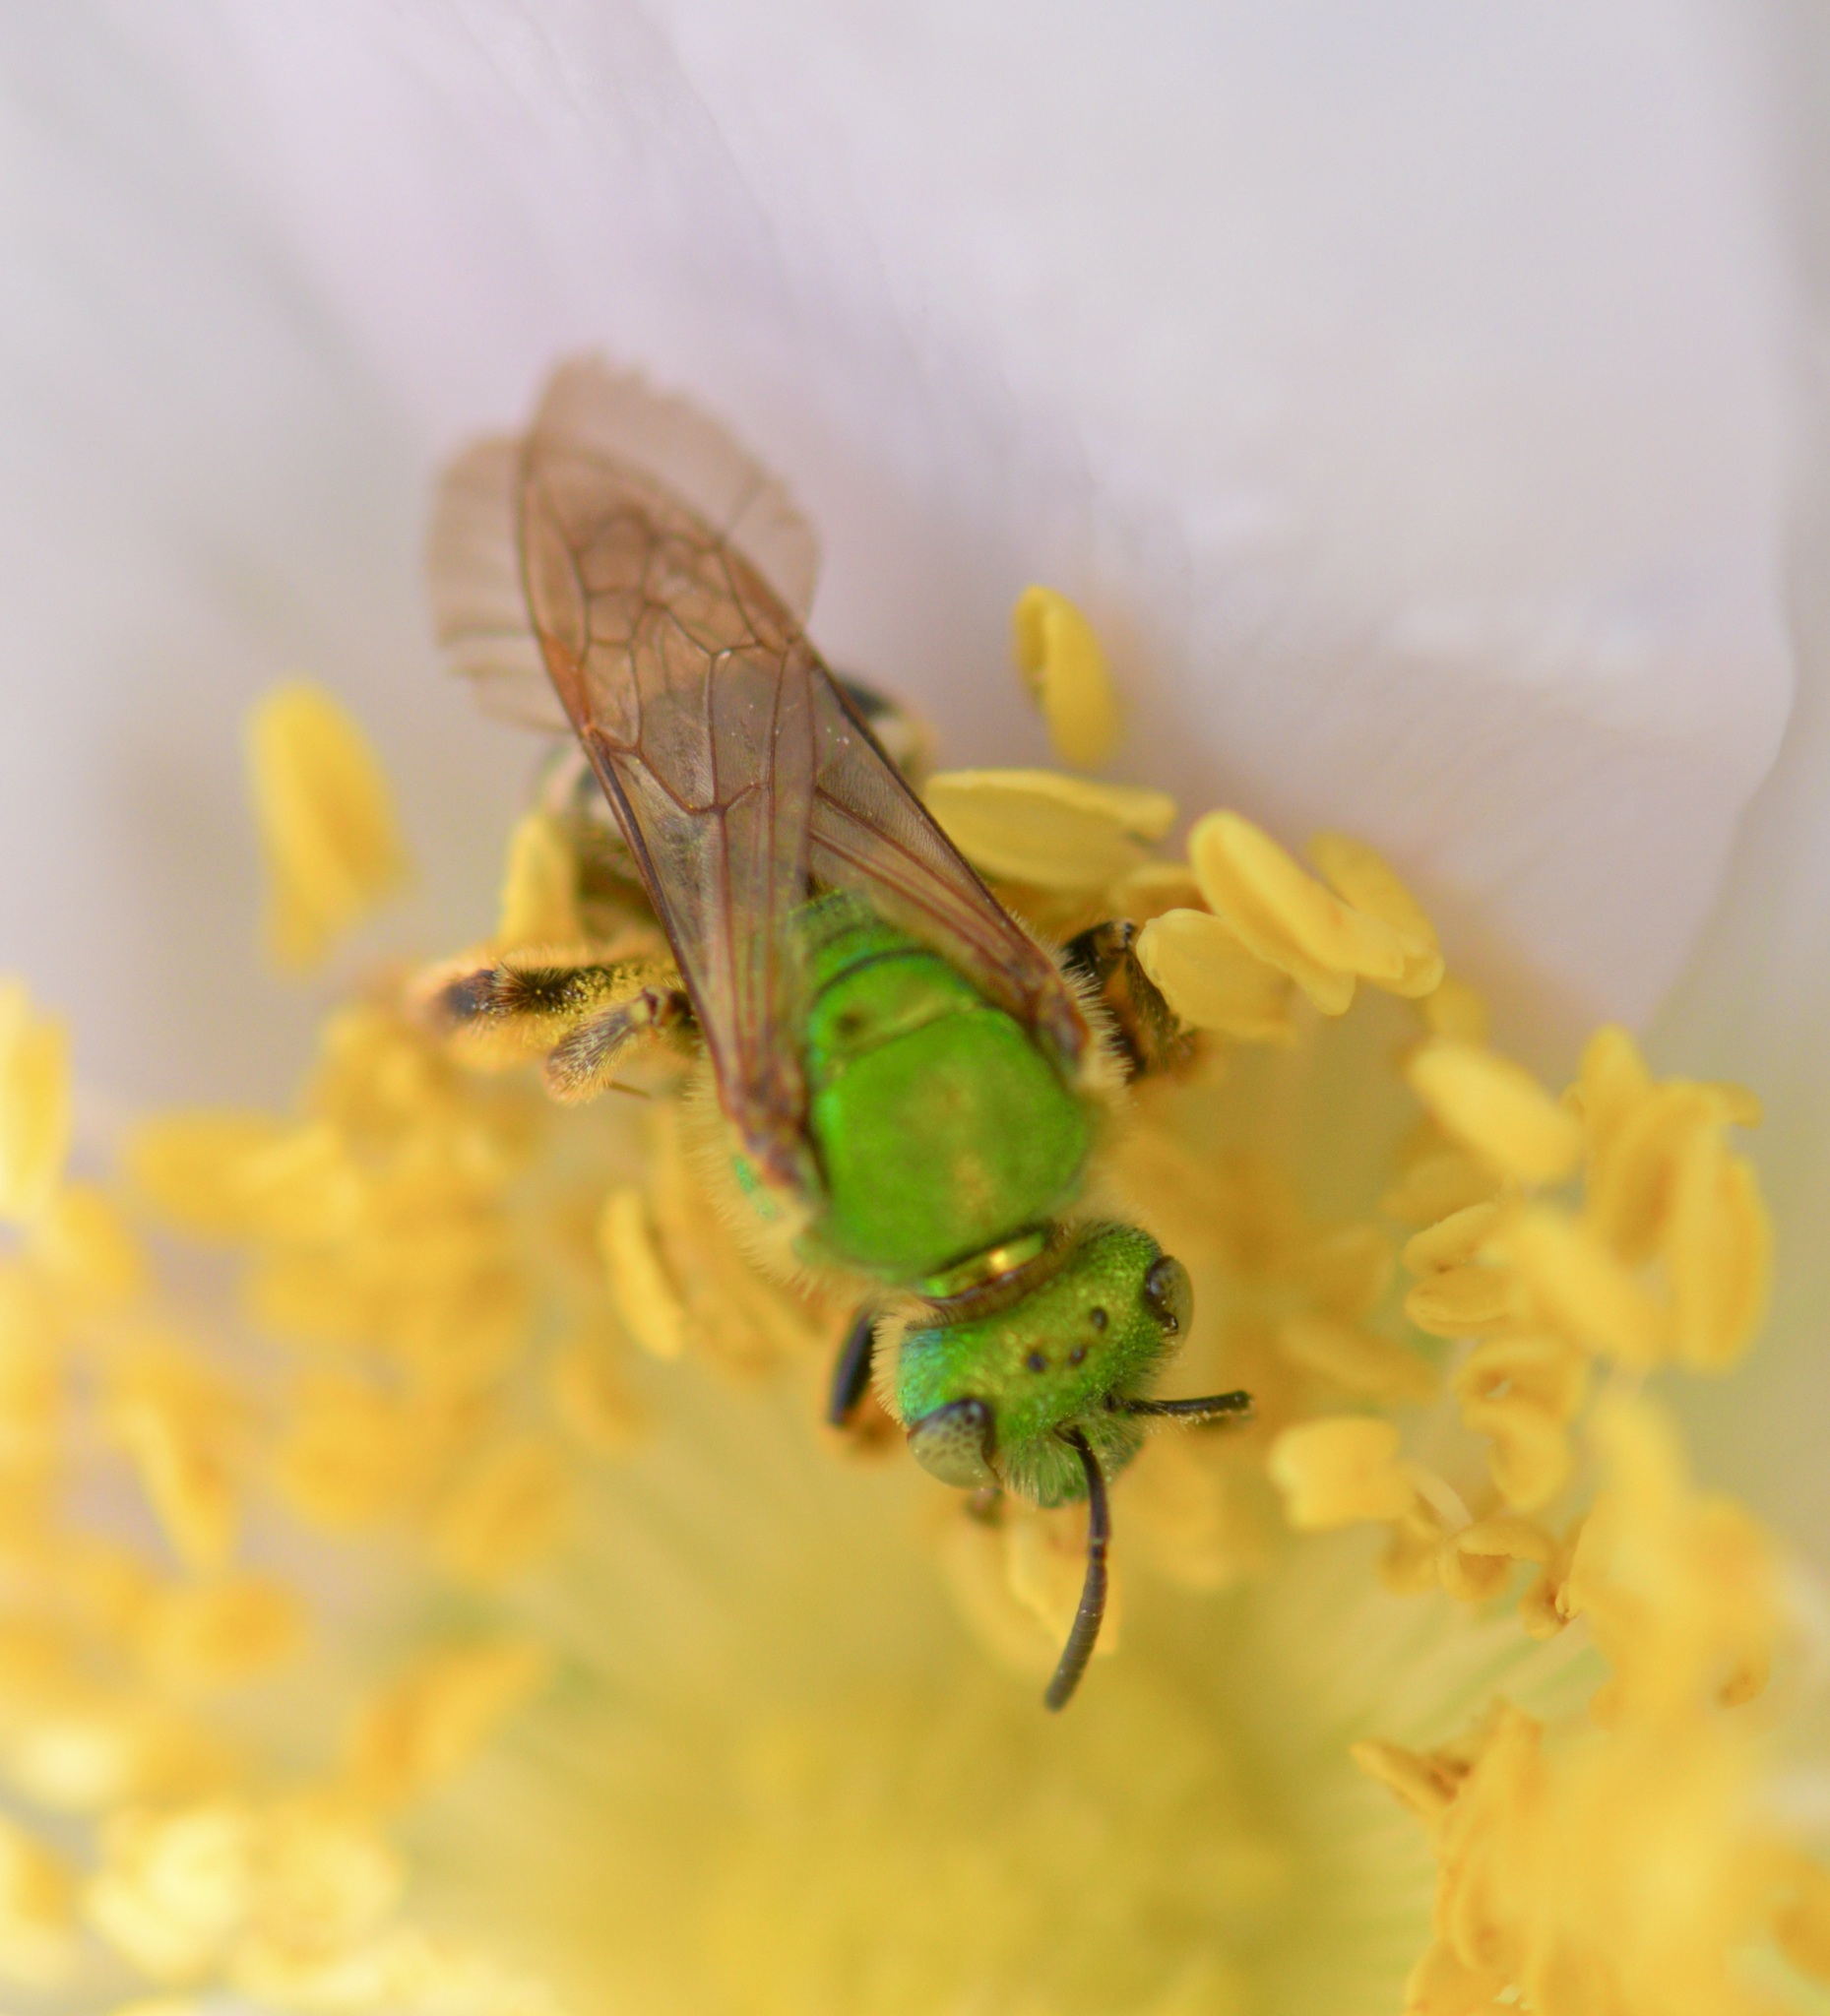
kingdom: Animalia
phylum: Arthropoda
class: Insecta
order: Hymenoptera
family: Halictidae
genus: Agapostemon
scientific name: Agapostemon virescens
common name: Bicolored striped sweat bee
